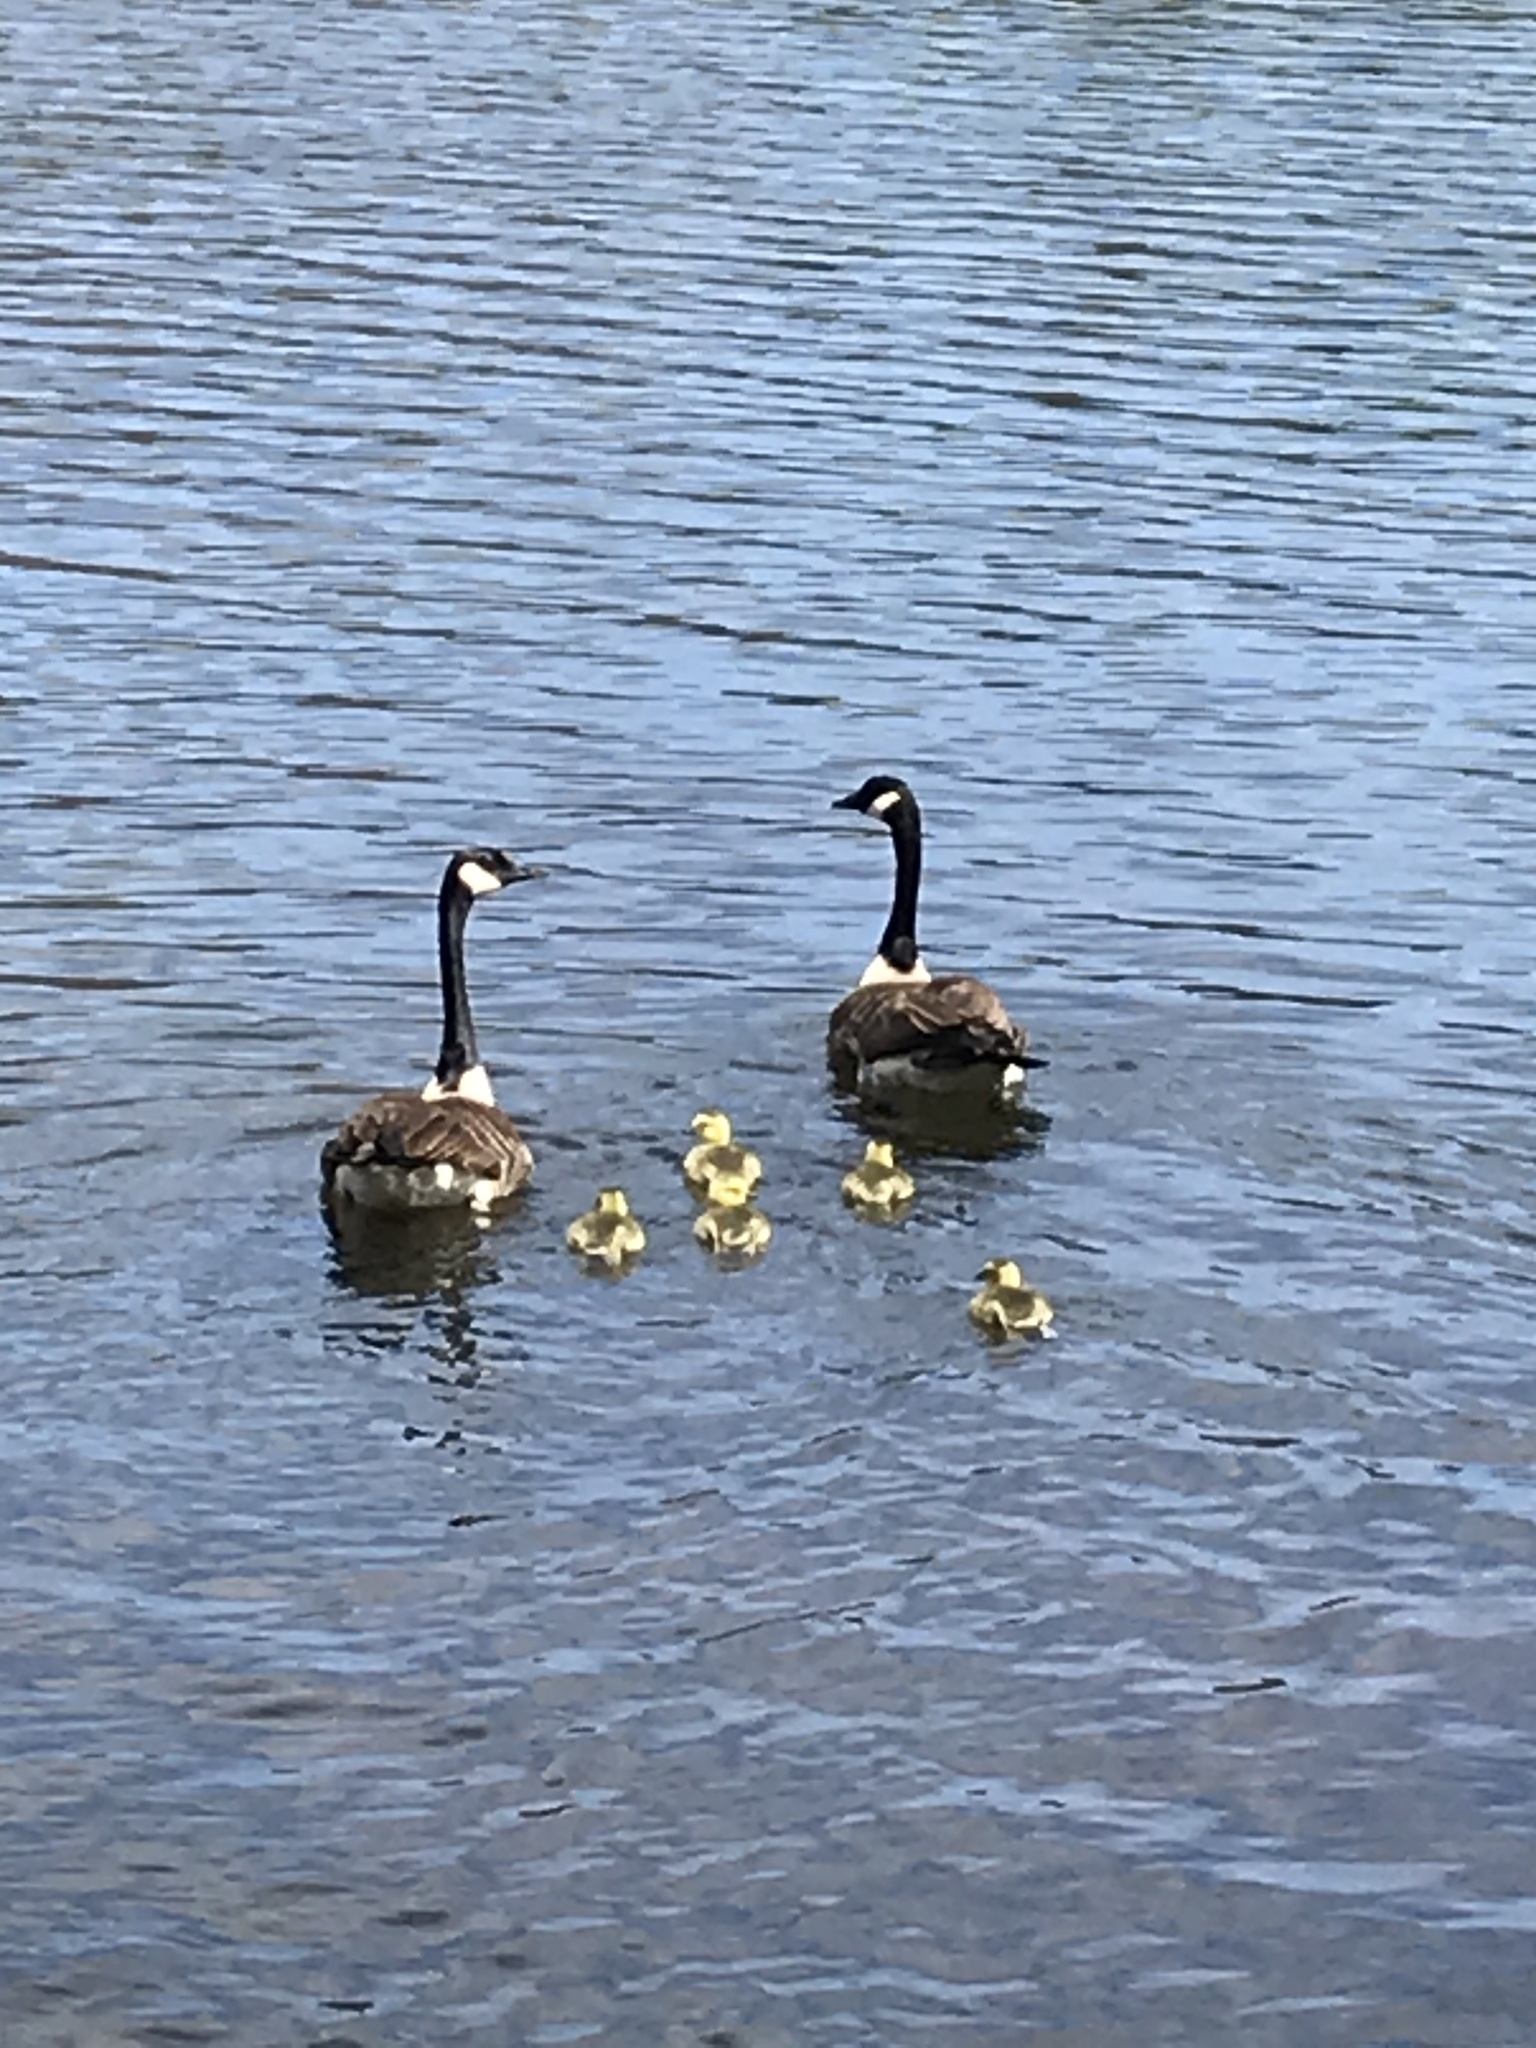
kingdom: Animalia
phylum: Chordata
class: Aves
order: Anseriformes
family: Anatidae
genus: Branta
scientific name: Branta canadensis
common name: Canada goose
